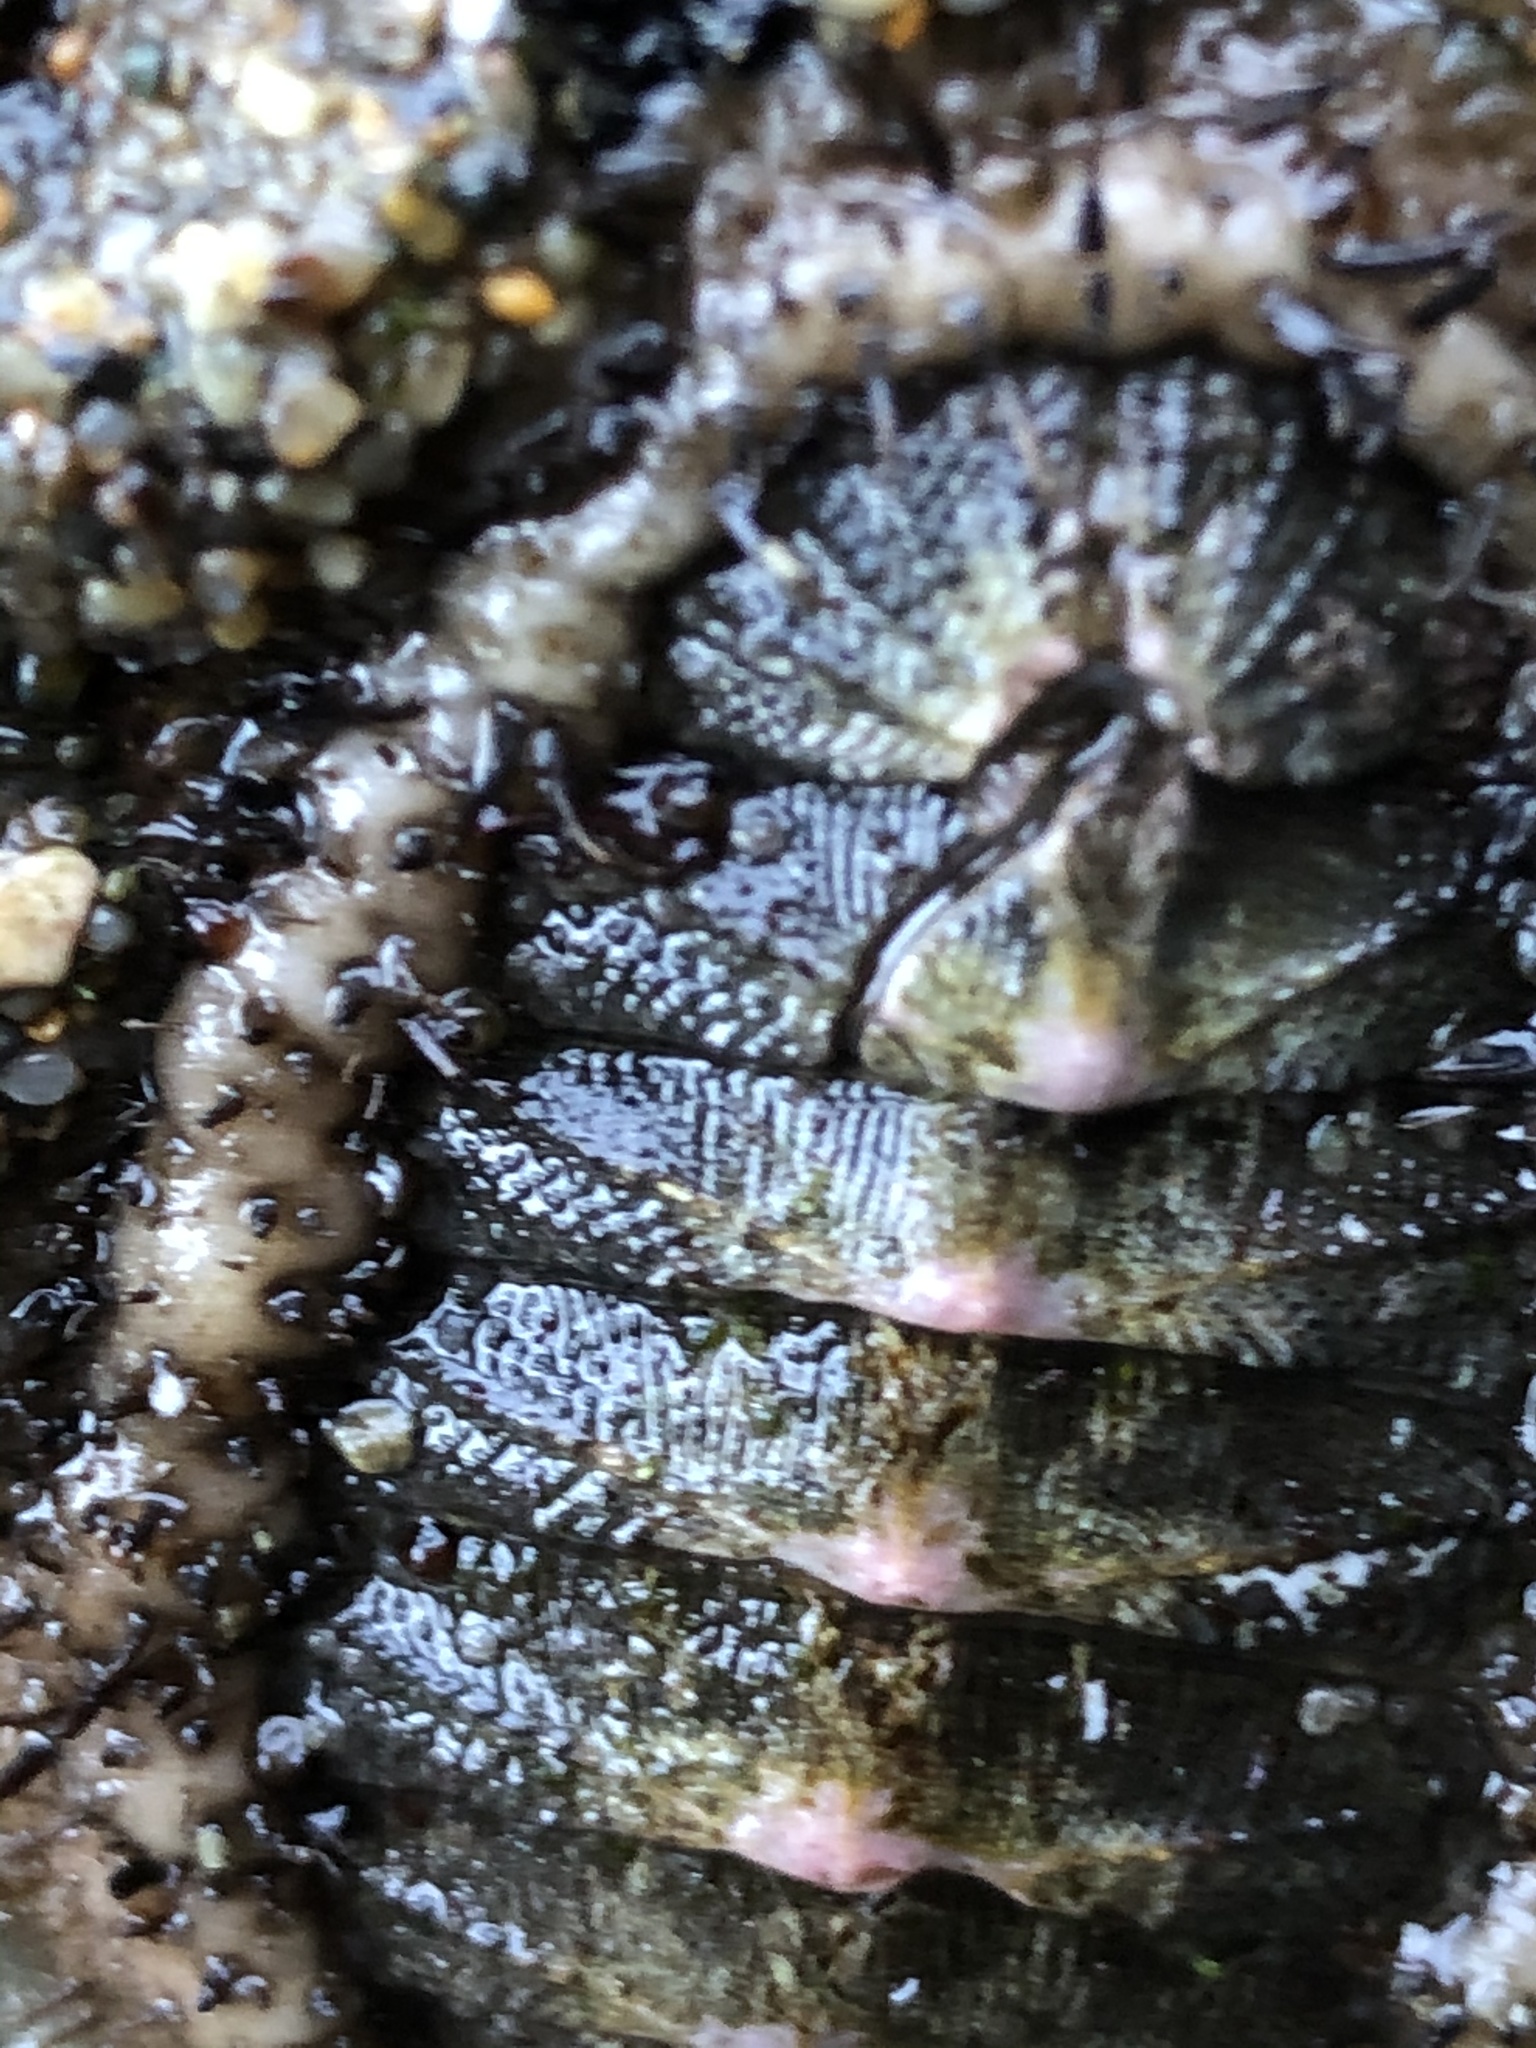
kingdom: Animalia
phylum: Mollusca
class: Polyplacophora
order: Chitonida
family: Mopaliidae
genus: Mopalia
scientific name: Mopalia muscosa
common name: Mossy chiton
